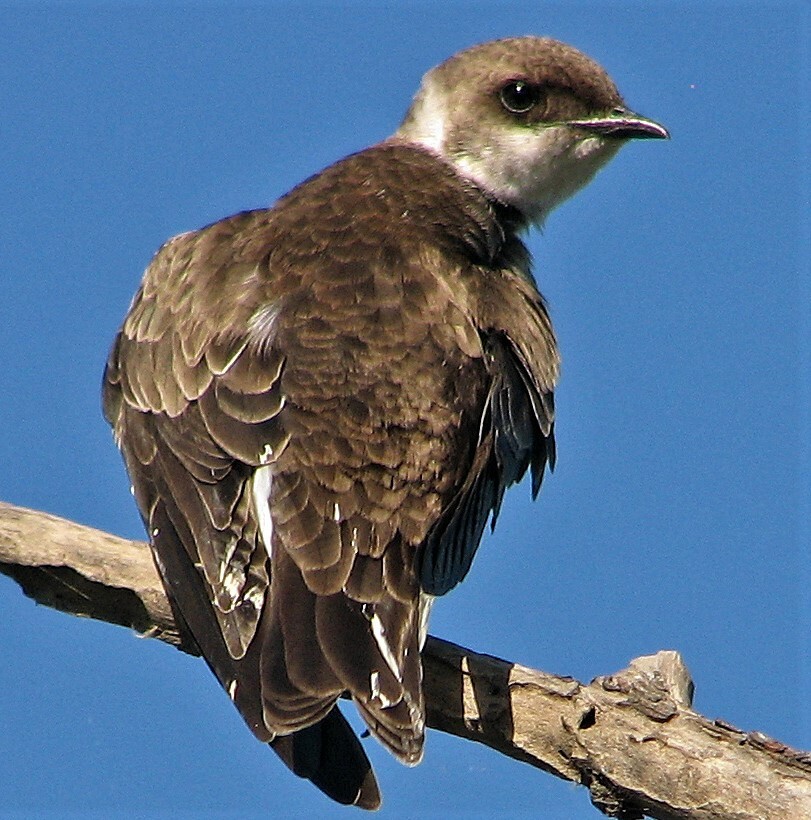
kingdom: Animalia
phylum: Chordata
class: Aves
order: Passeriformes
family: Hirundinidae
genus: Progne
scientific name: Progne tapera
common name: Brown-chested martin
